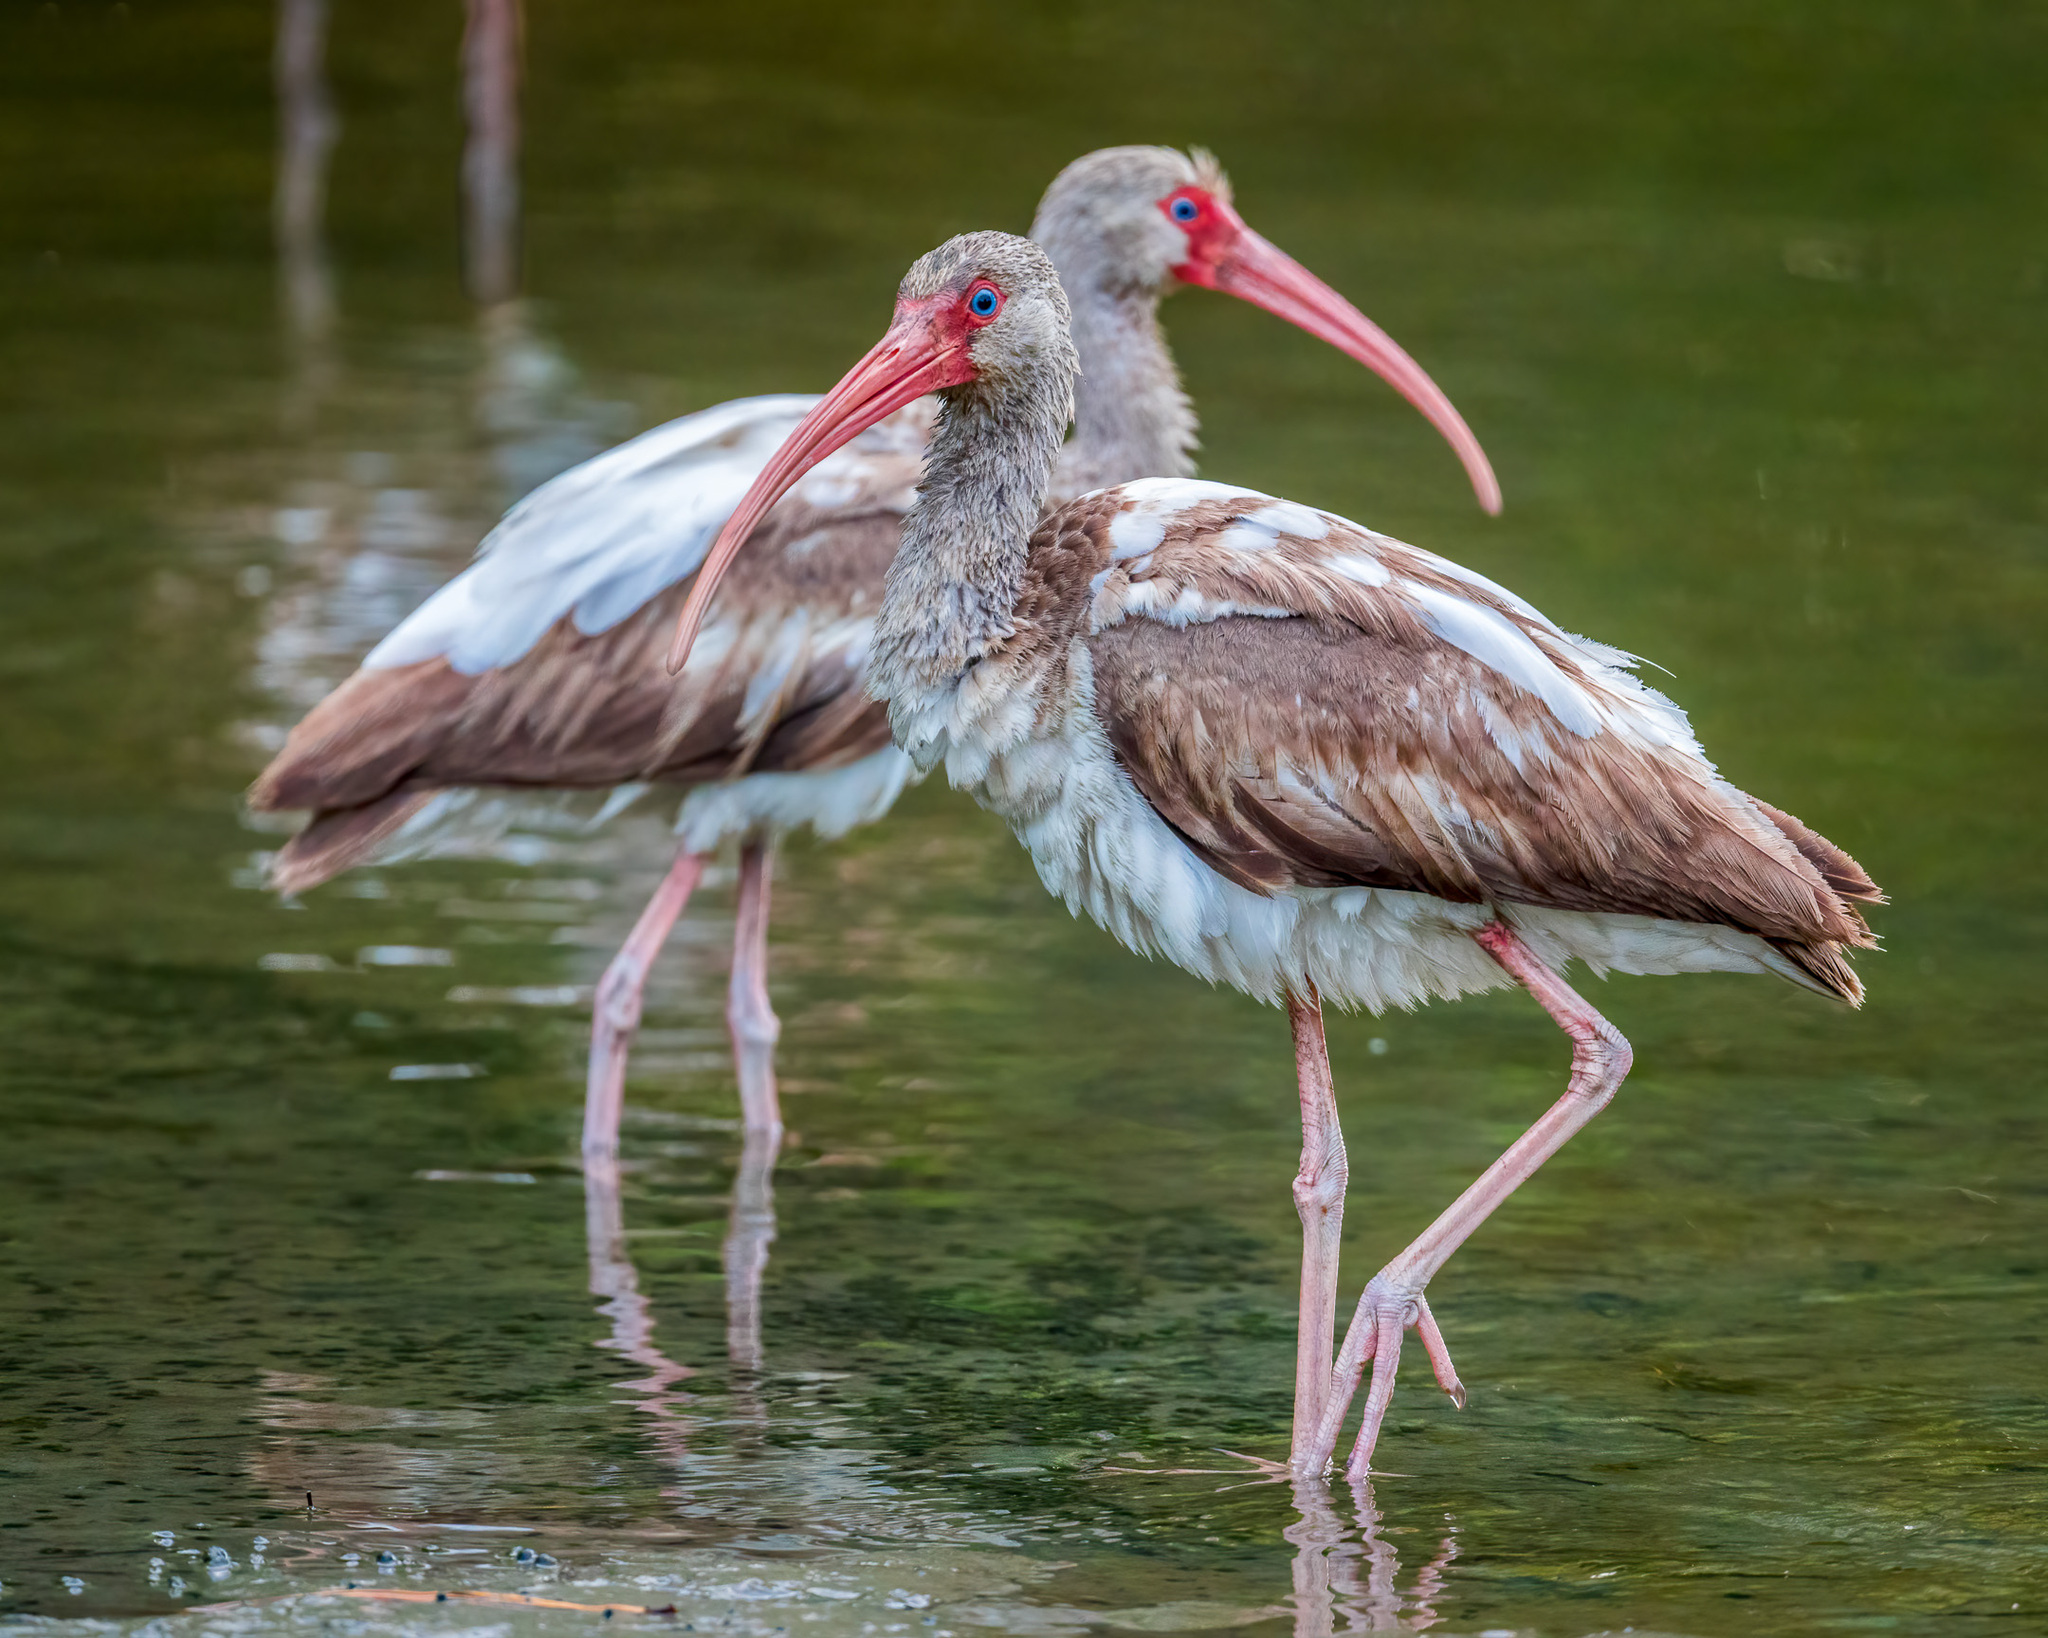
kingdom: Animalia
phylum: Chordata
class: Aves
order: Pelecaniformes
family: Threskiornithidae
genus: Eudocimus
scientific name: Eudocimus albus
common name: White ibis
